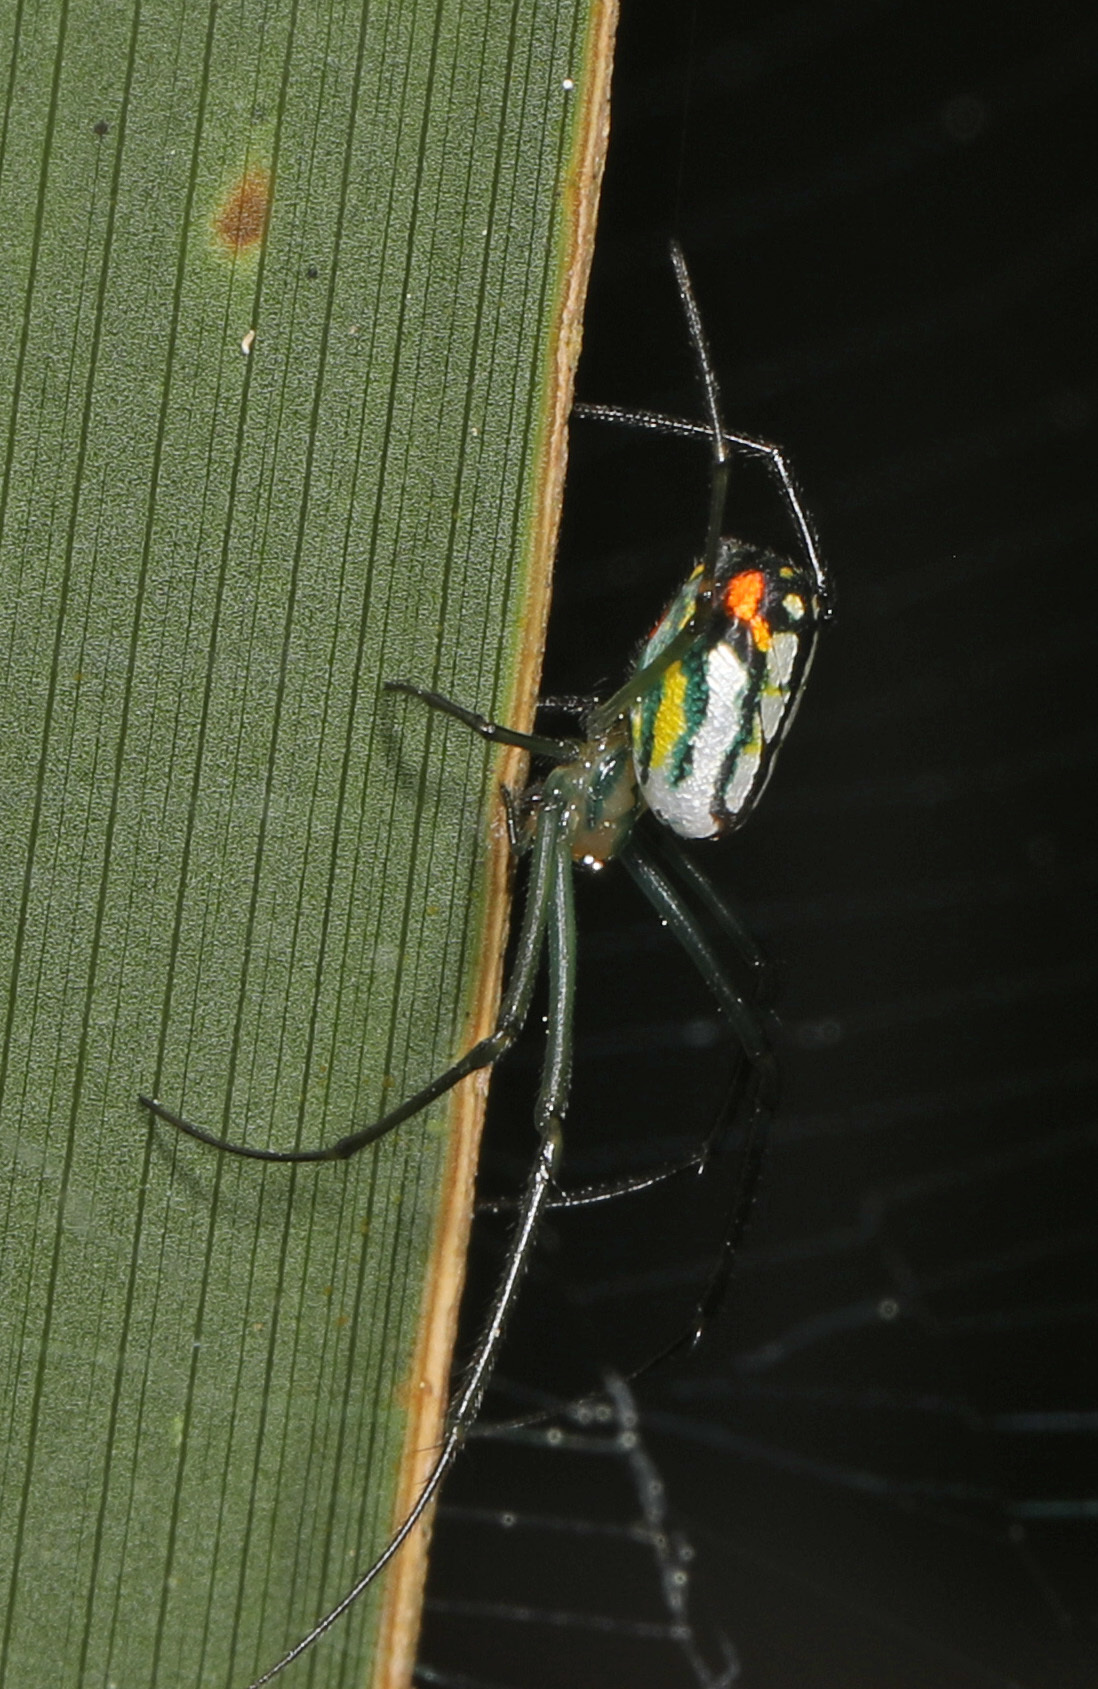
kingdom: Animalia
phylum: Arthropoda
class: Arachnida
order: Araneae
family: Tetragnathidae
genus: Leucauge
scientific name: Leucauge argyrobapta
